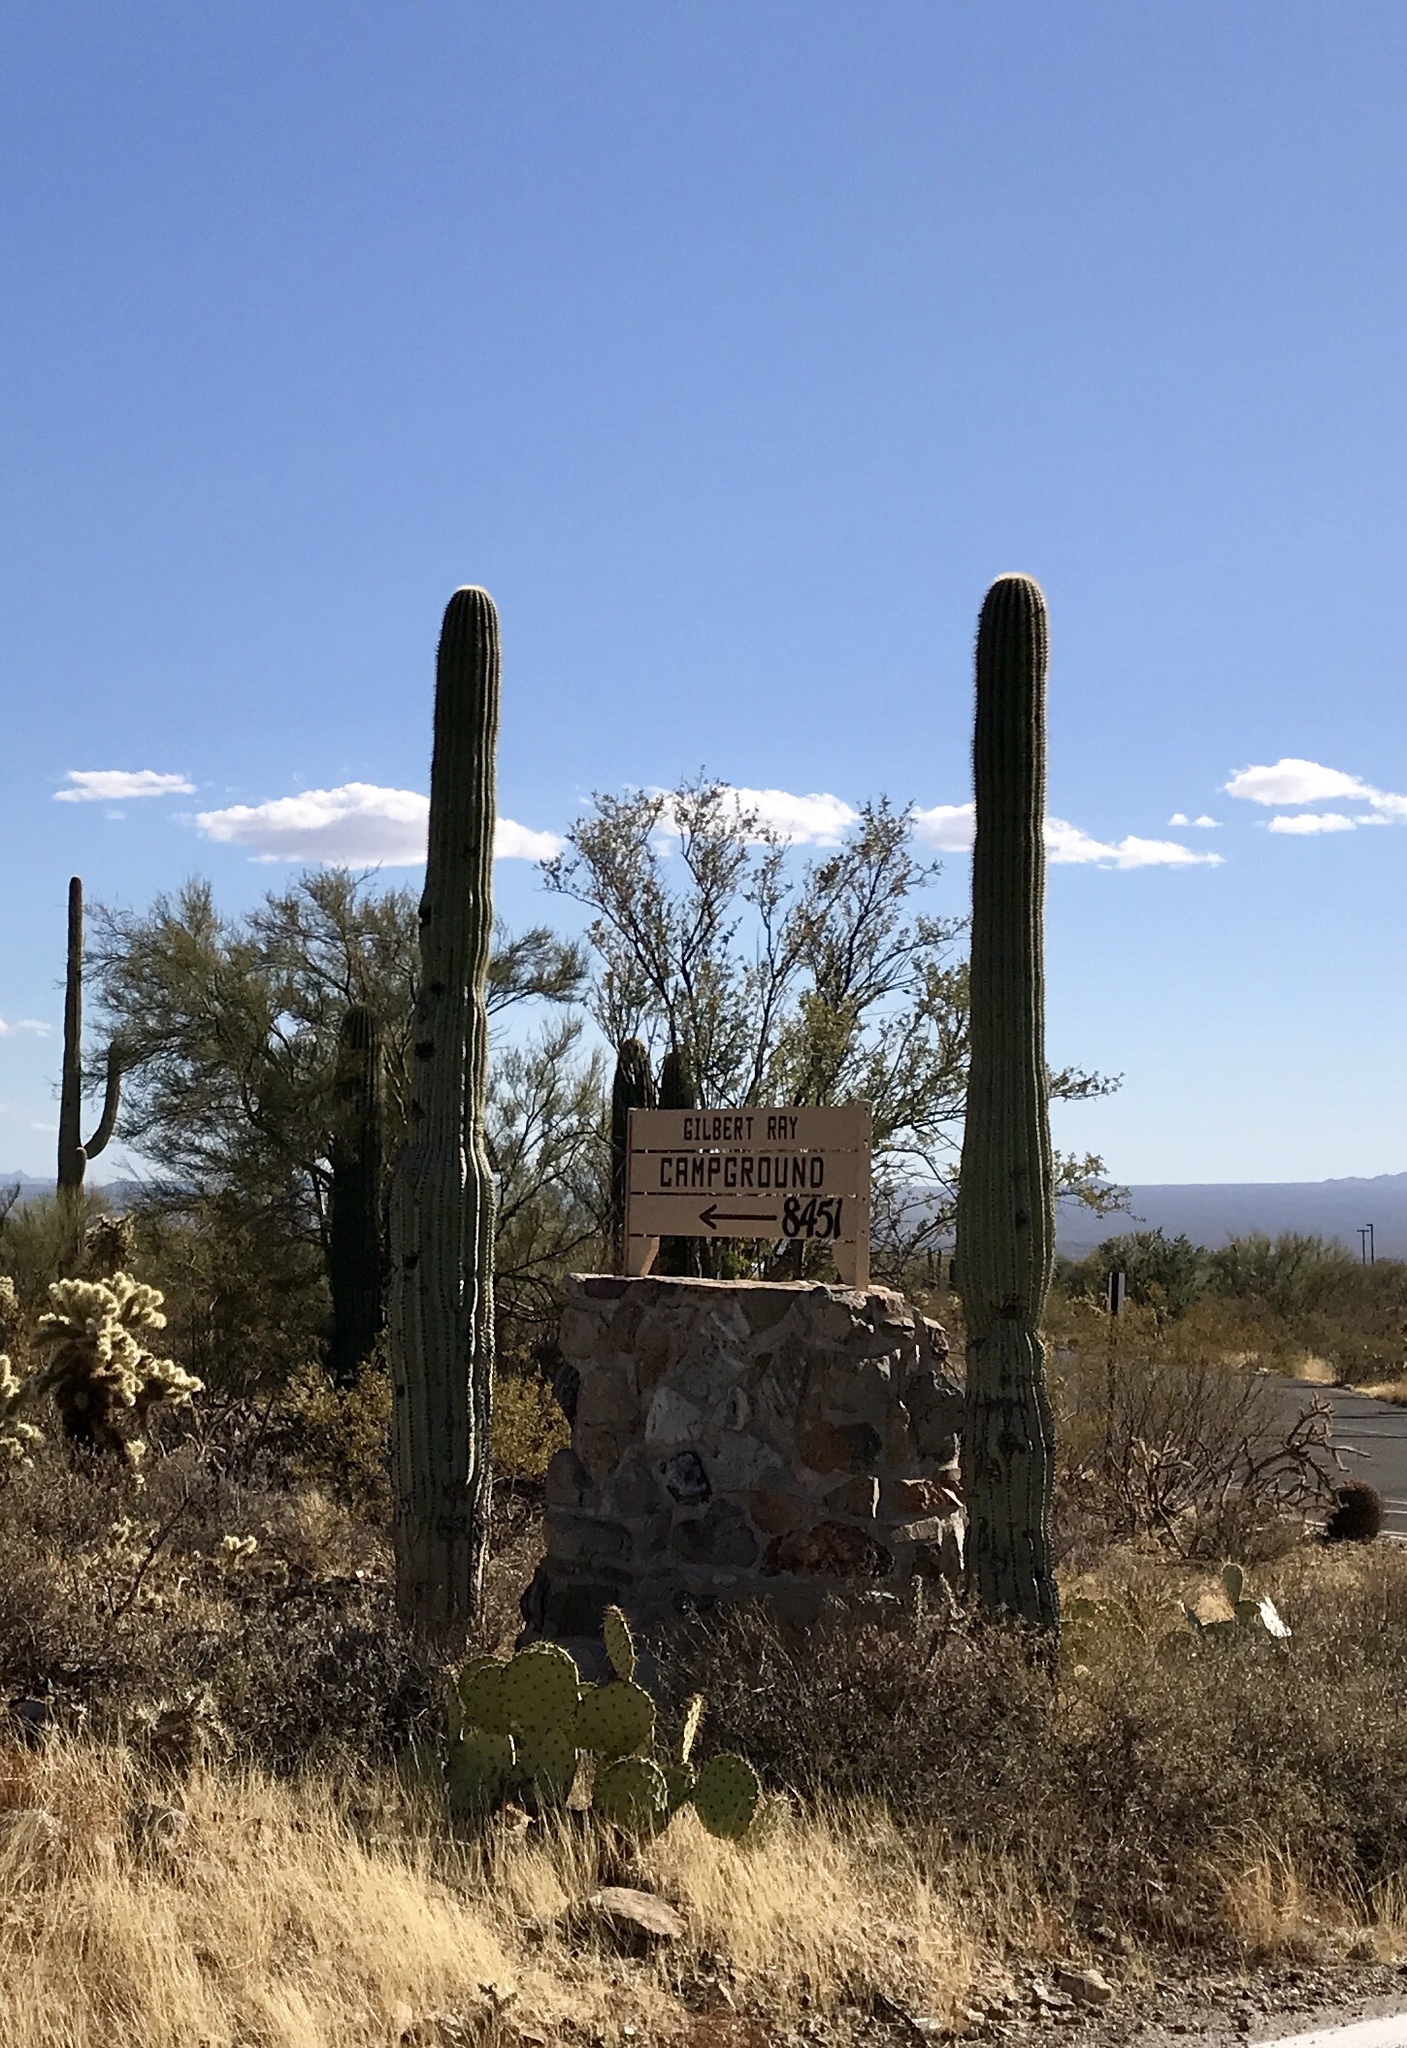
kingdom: Plantae
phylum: Tracheophyta
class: Magnoliopsida
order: Caryophyllales
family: Cactaceae
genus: Carnegiea
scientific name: Carnegiea gigantea
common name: Saguaro
